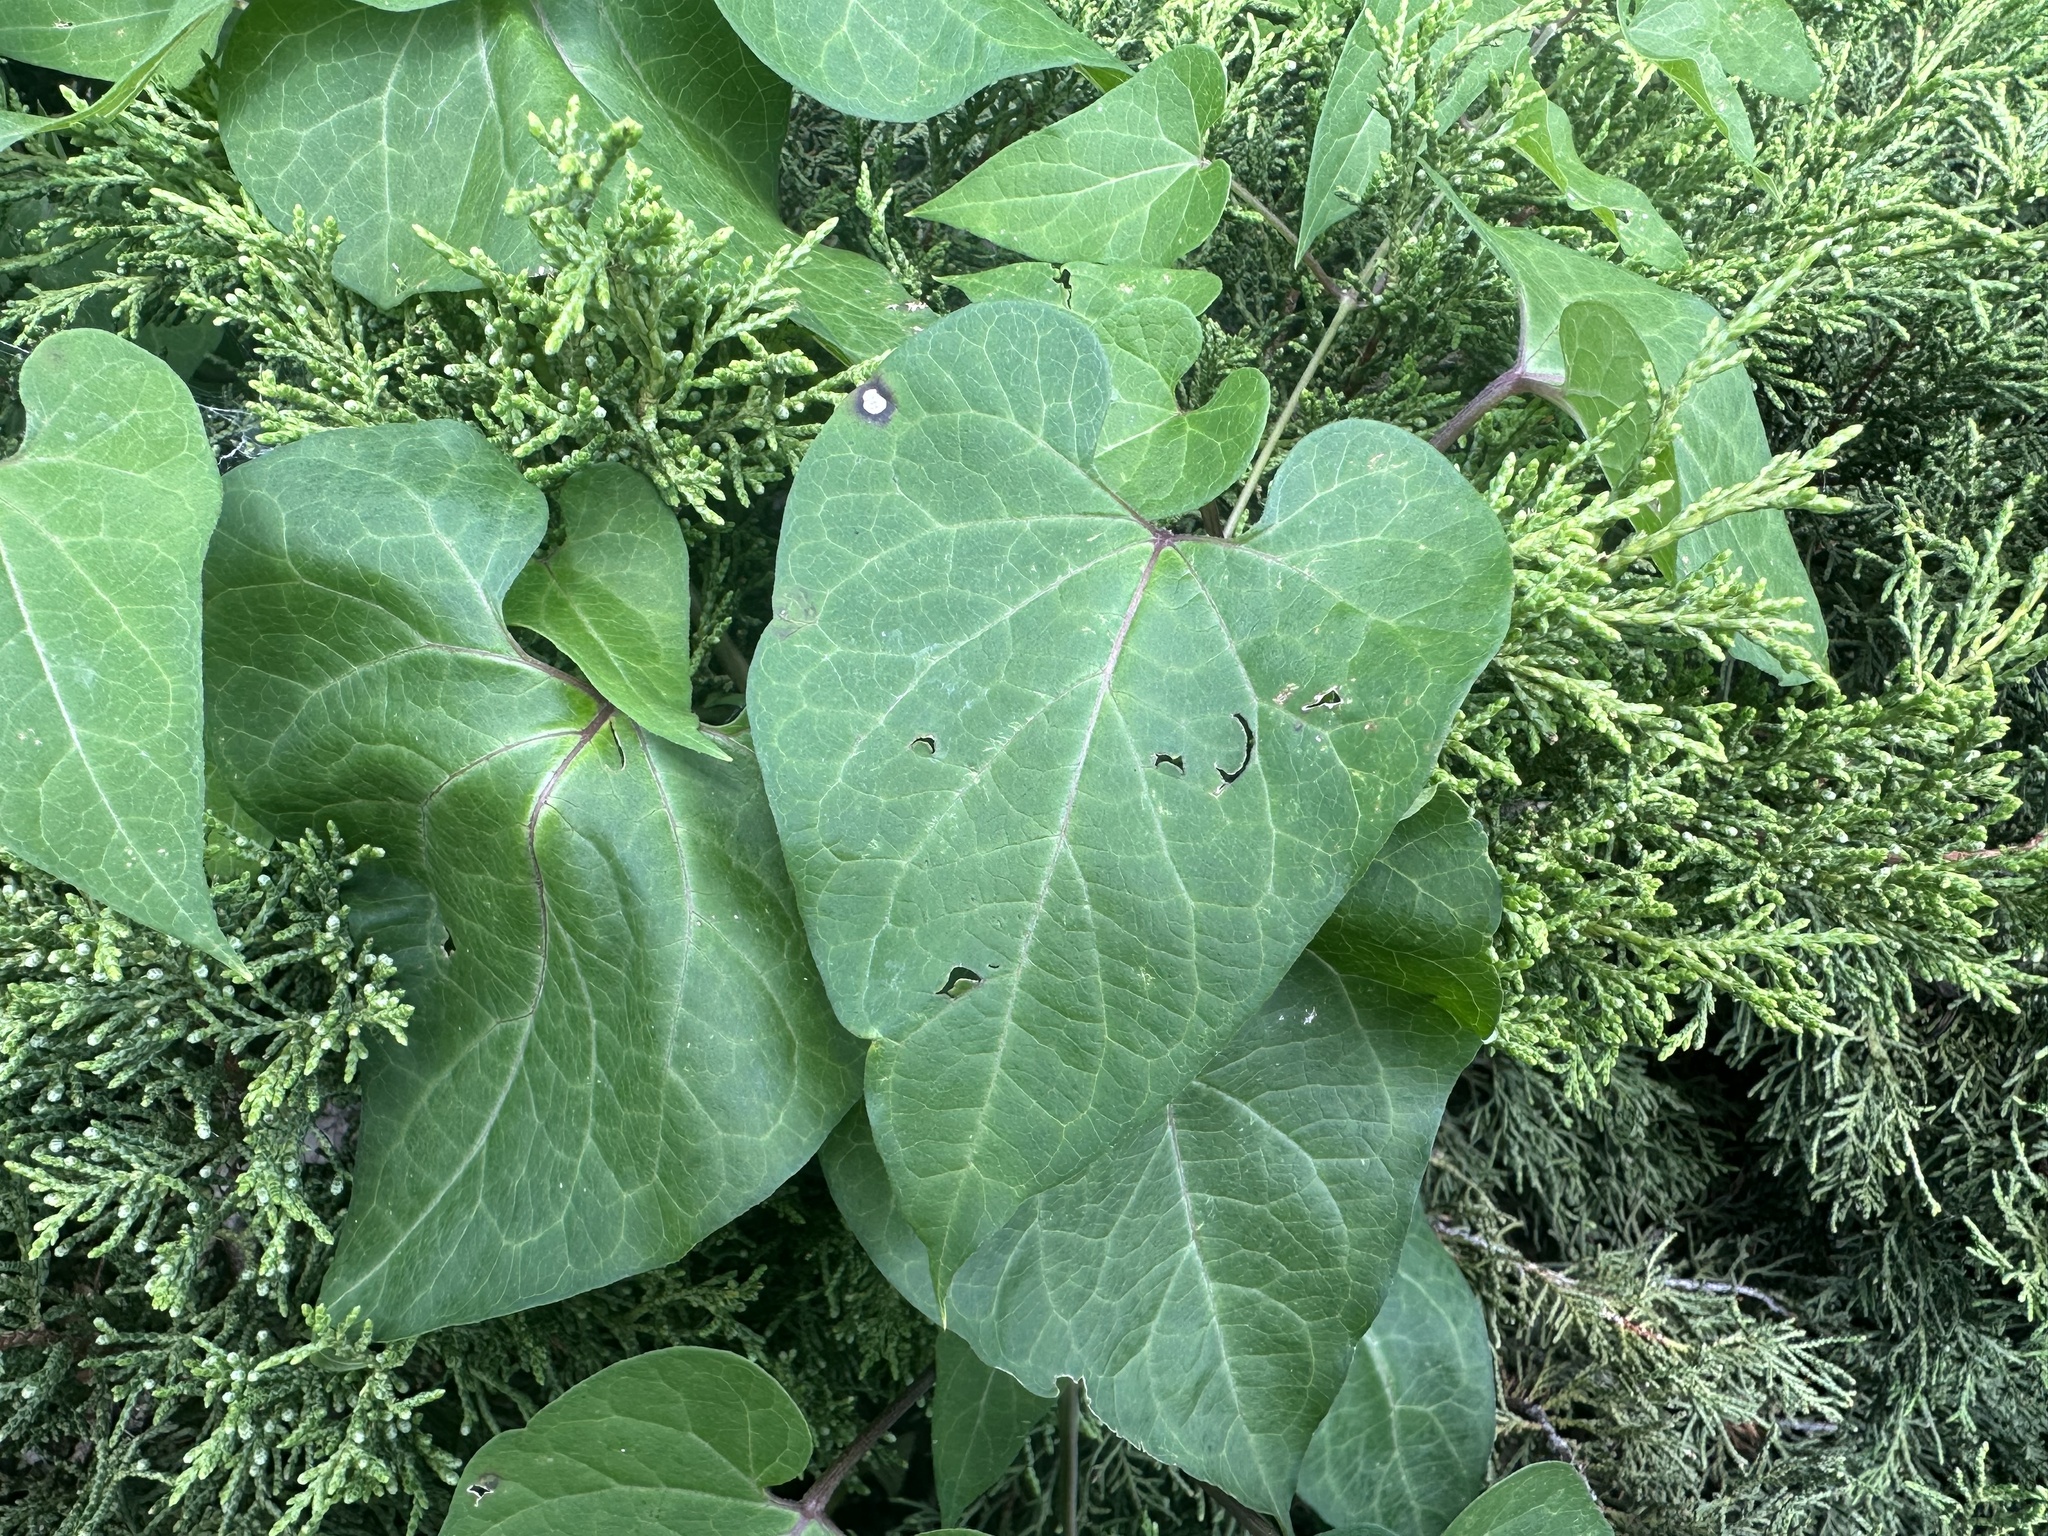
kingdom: Plantae
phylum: Tracheophyta
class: Magnoliopsida
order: Gentianales
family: Apocynaceae
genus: Cynanchum
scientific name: Cynanchum laeve
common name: Sandvine
